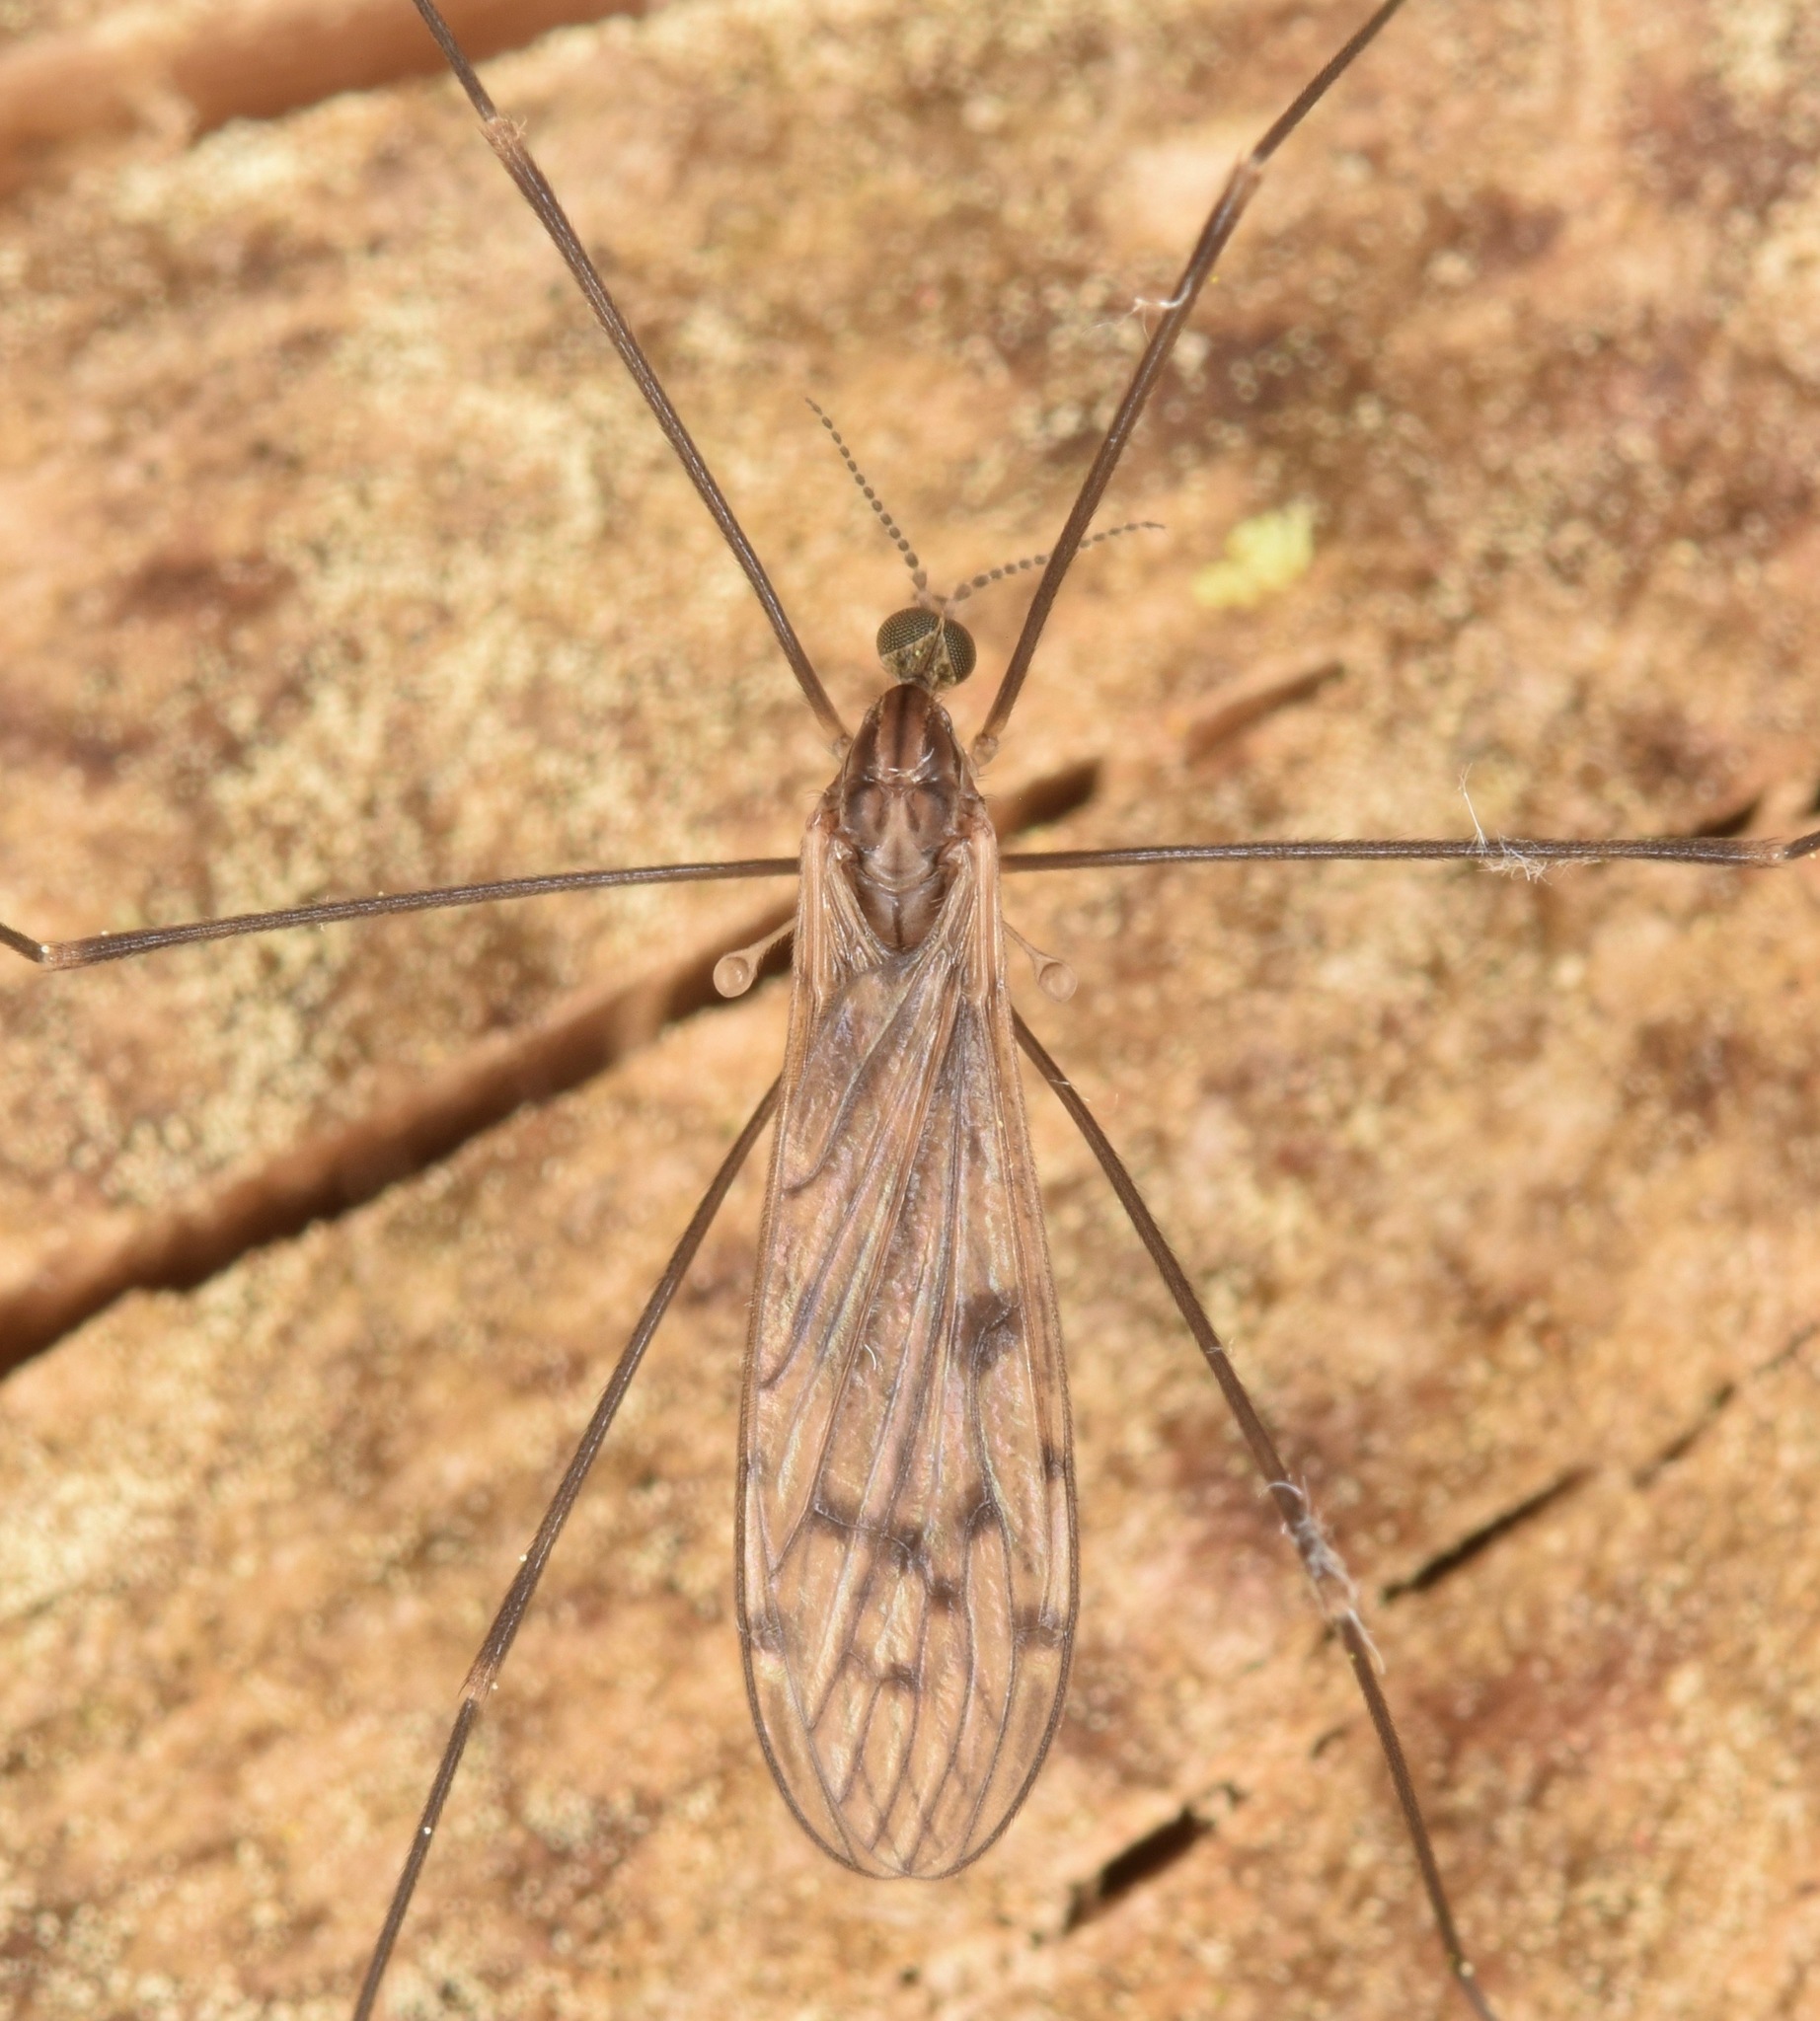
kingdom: Animalia
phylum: Arthropoda
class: Insecta
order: Diptera
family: Limoniidae
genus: Metalimnobia
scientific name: Metalimnobia novaeangliae
